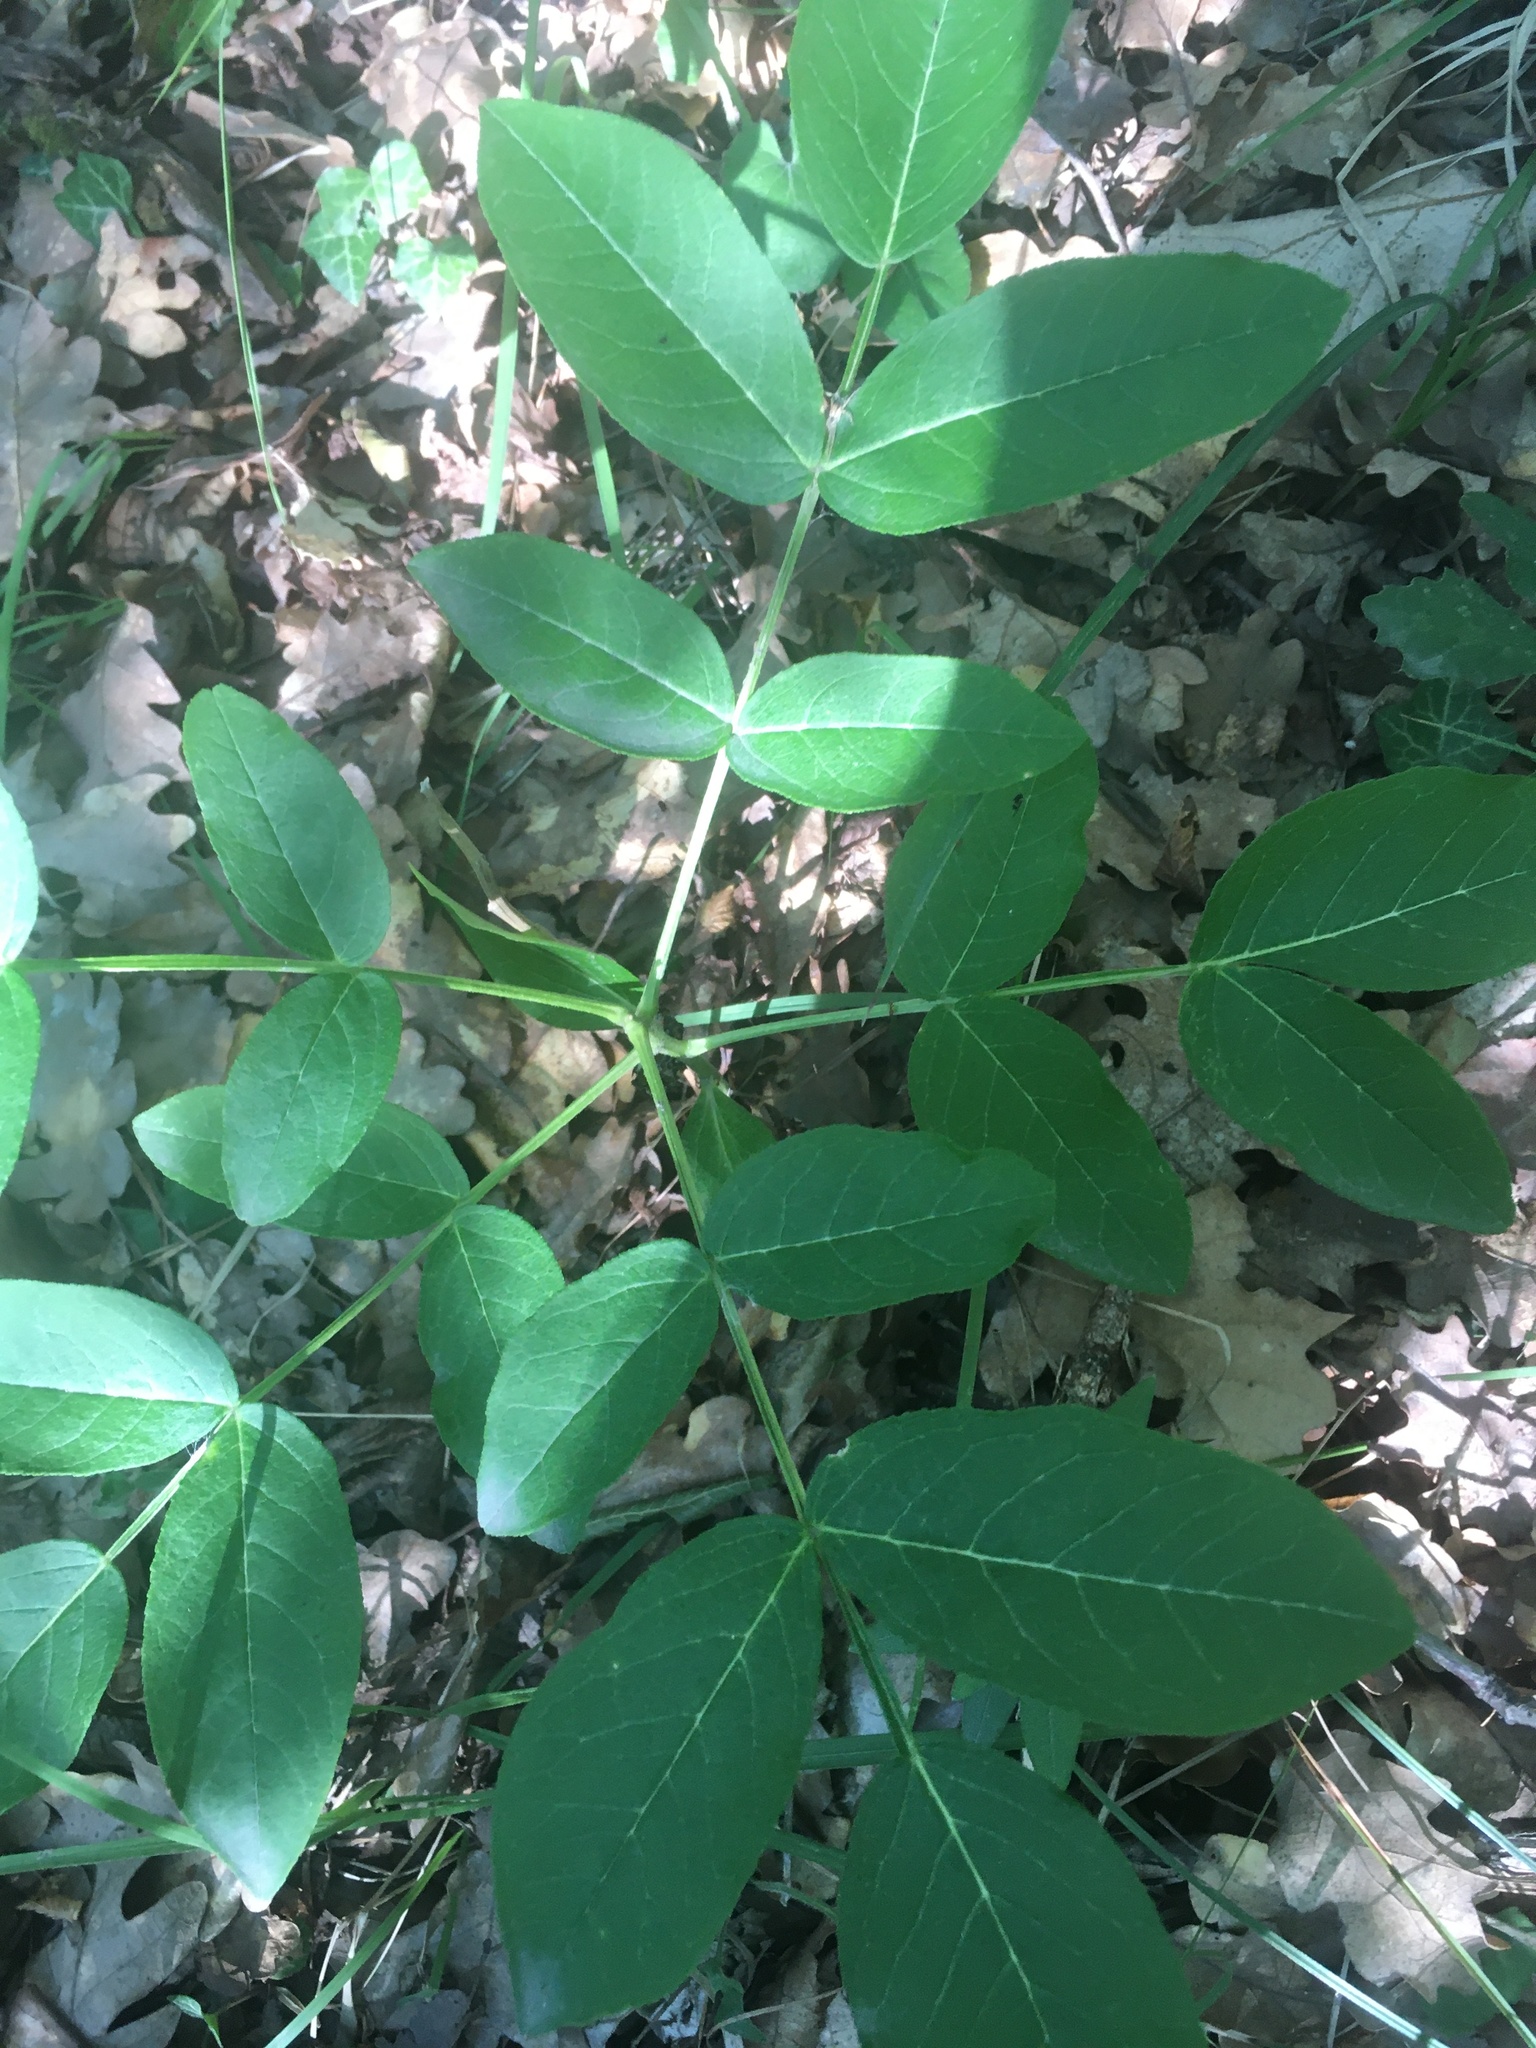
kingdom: Plantae
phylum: Tracheophyta
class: Magnoliopsida
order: Sapindales
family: Rutaceae
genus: Dictamnus
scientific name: Dictamnus albus
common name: Gasplant
